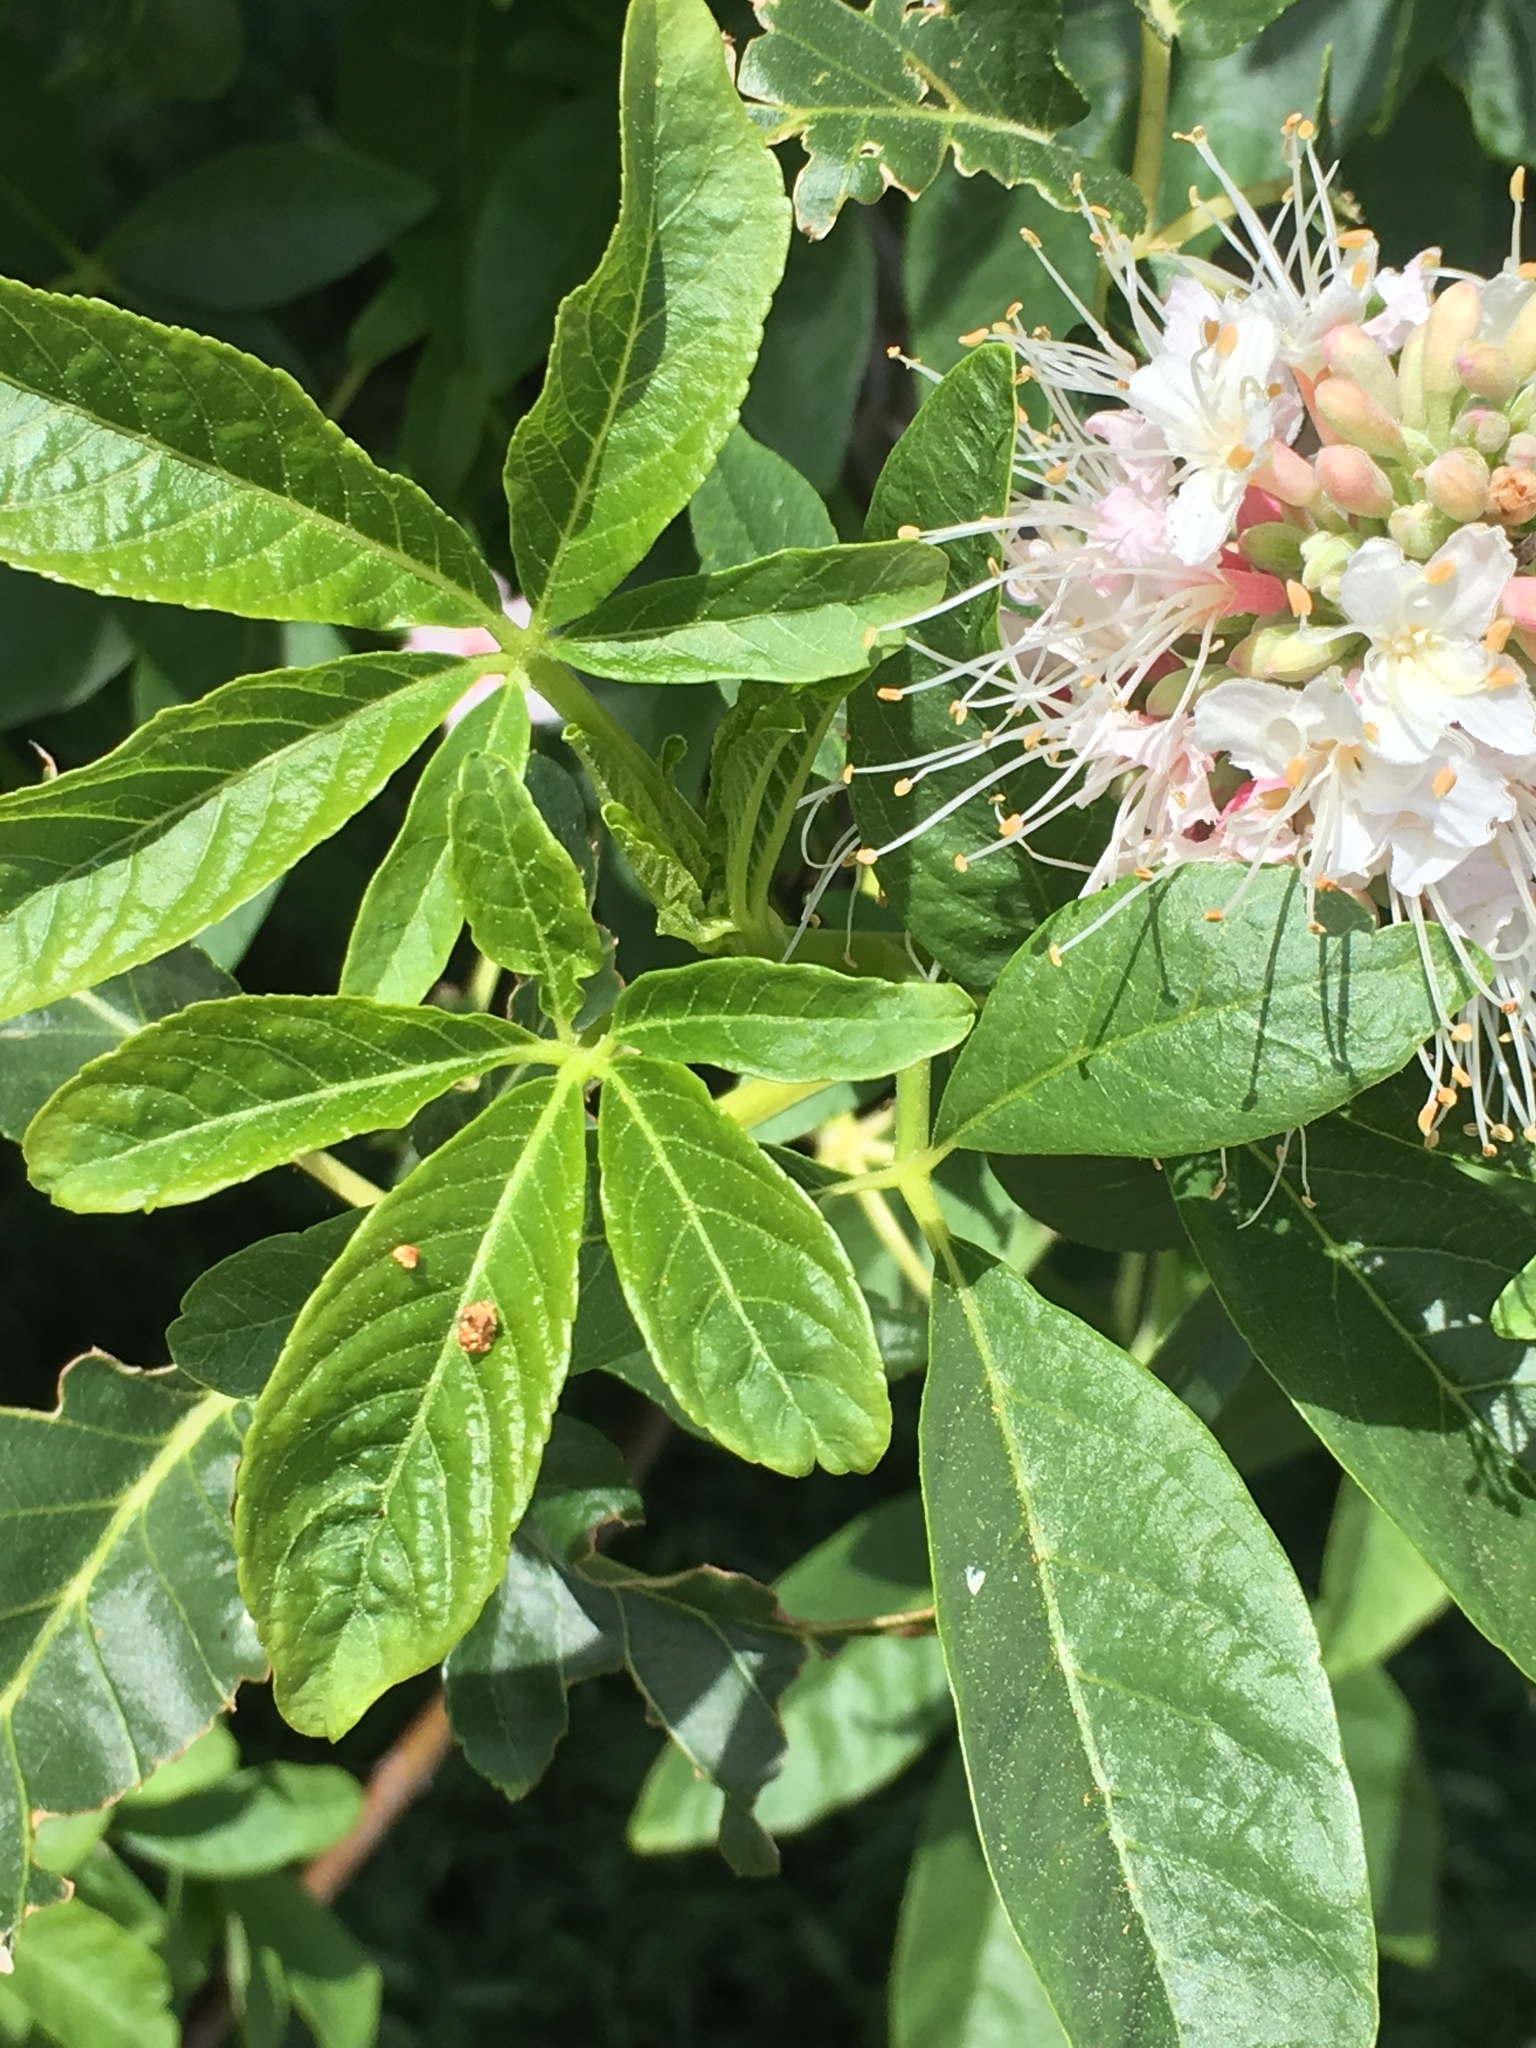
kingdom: Plantae
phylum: Tracheophyta
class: Magnoliopsida
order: Sapindales
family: Sapindaceae
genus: Aesculus
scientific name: Aesculus californica
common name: California buckeye
